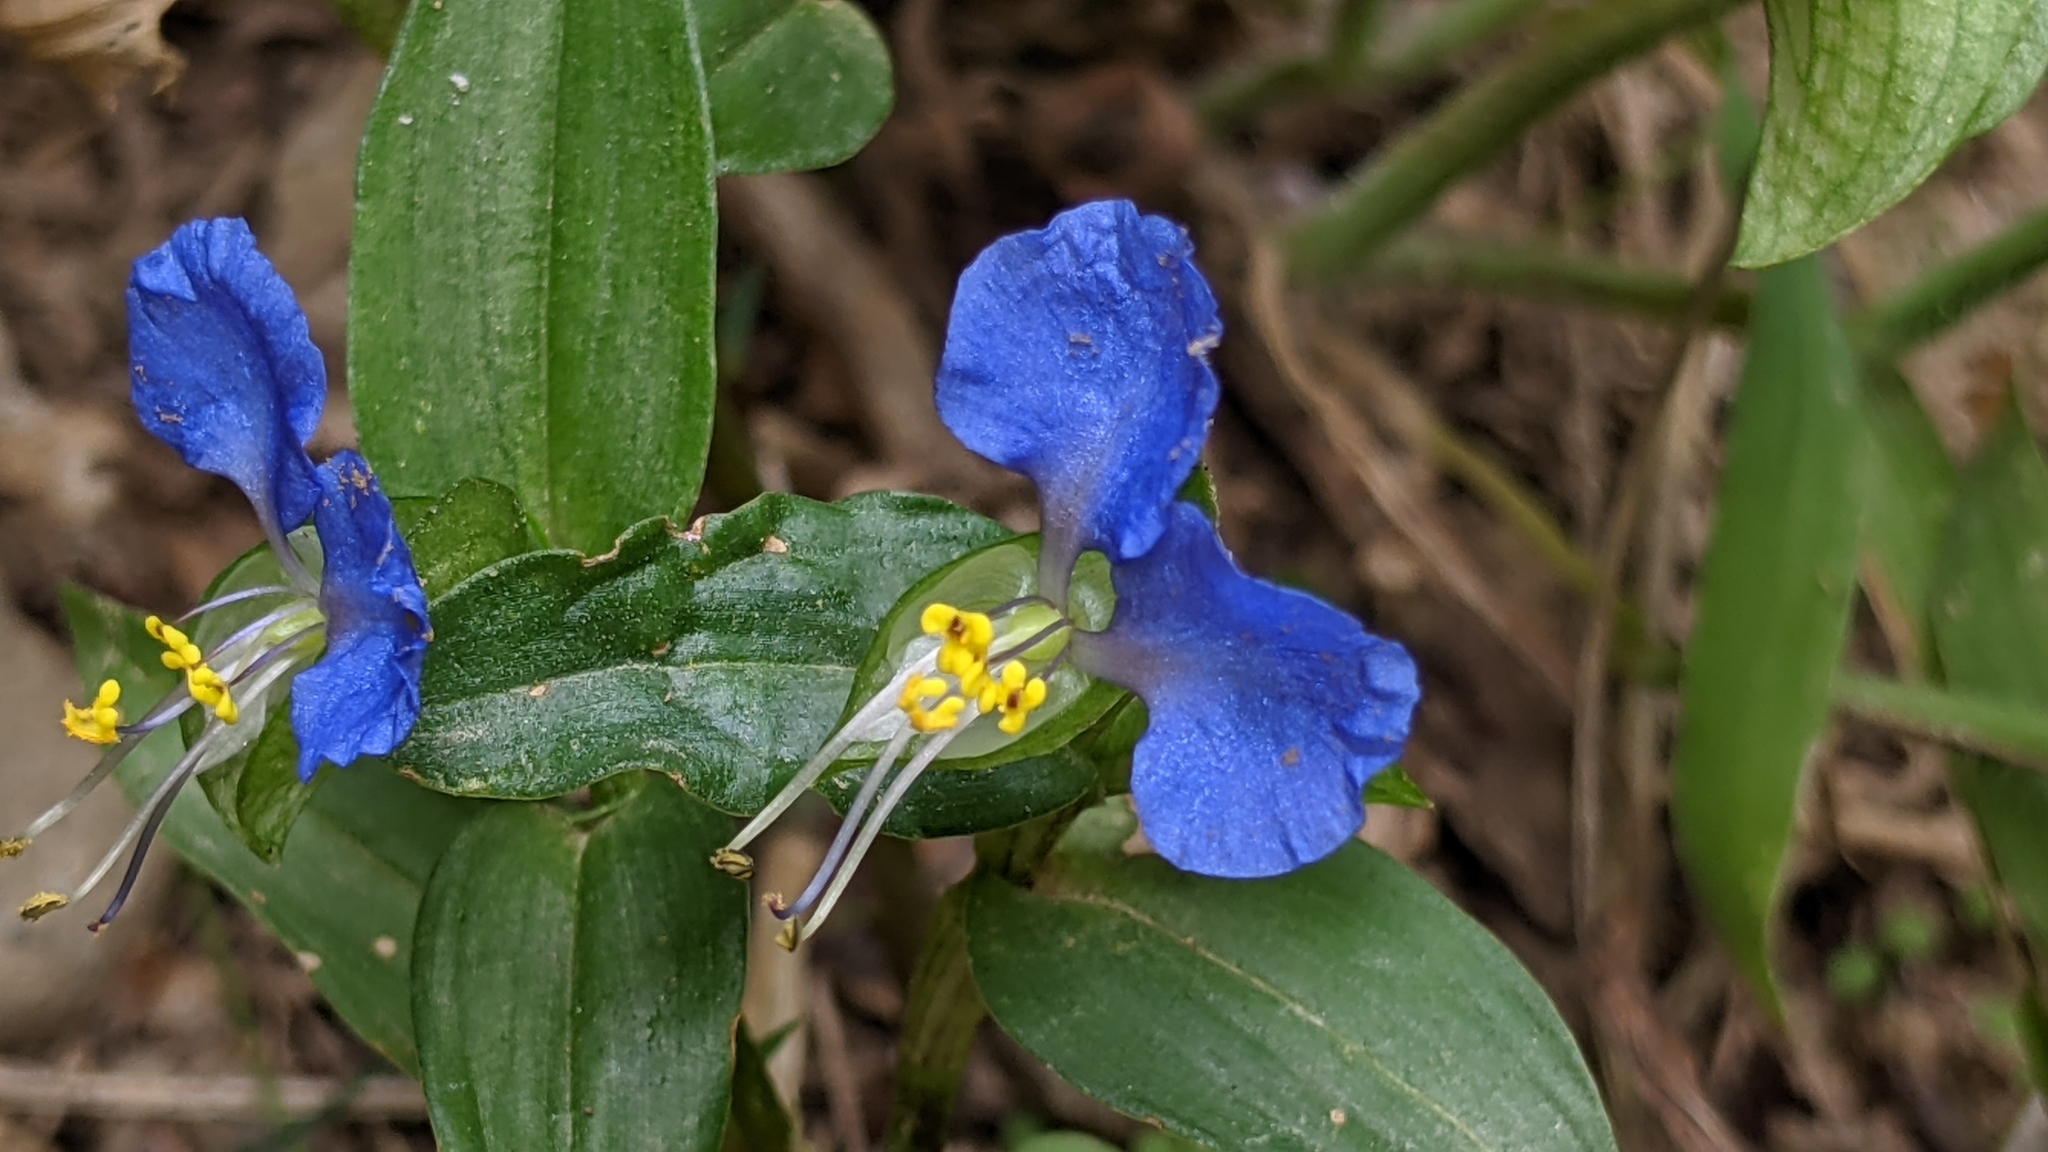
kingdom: Plantae
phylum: Tracheophyta
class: Liliopsida
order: Commelinales
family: Commelinaceae
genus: Commelina
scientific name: Commelina communis
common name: Asiatic dayflower
